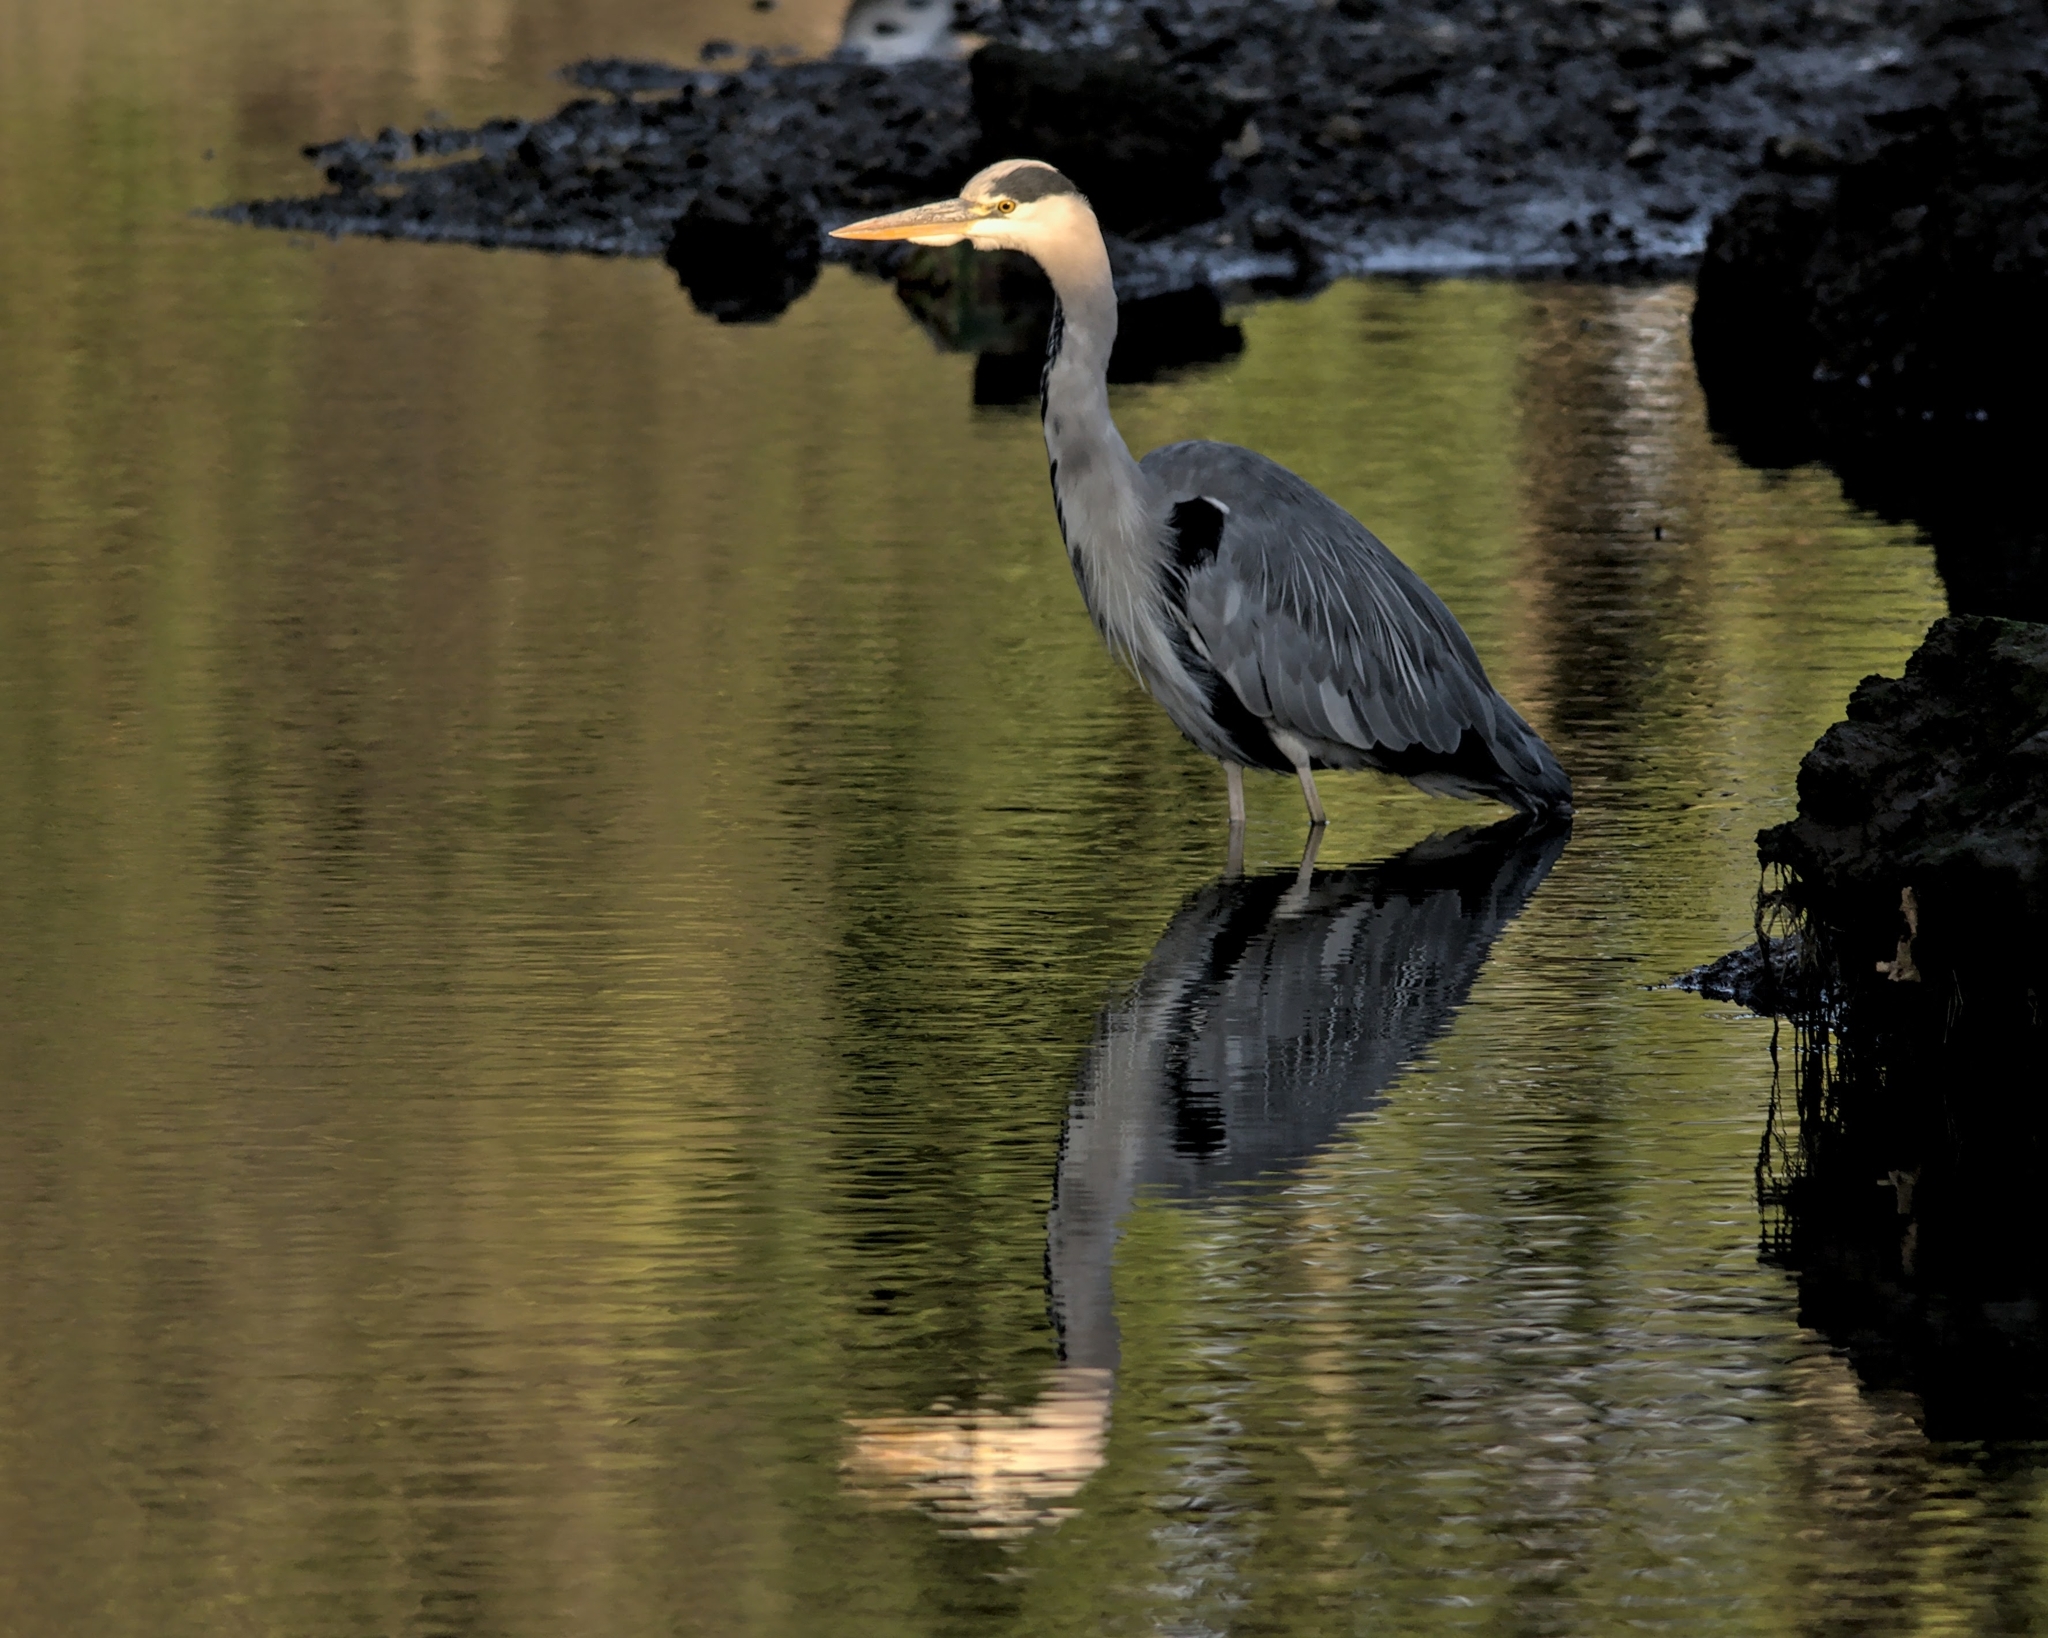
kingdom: Animalia
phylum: Chordata
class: Aves
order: Pelecaniformes
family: Ardeidae
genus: Ardea
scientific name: Ardea cinerea
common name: Grey heron
